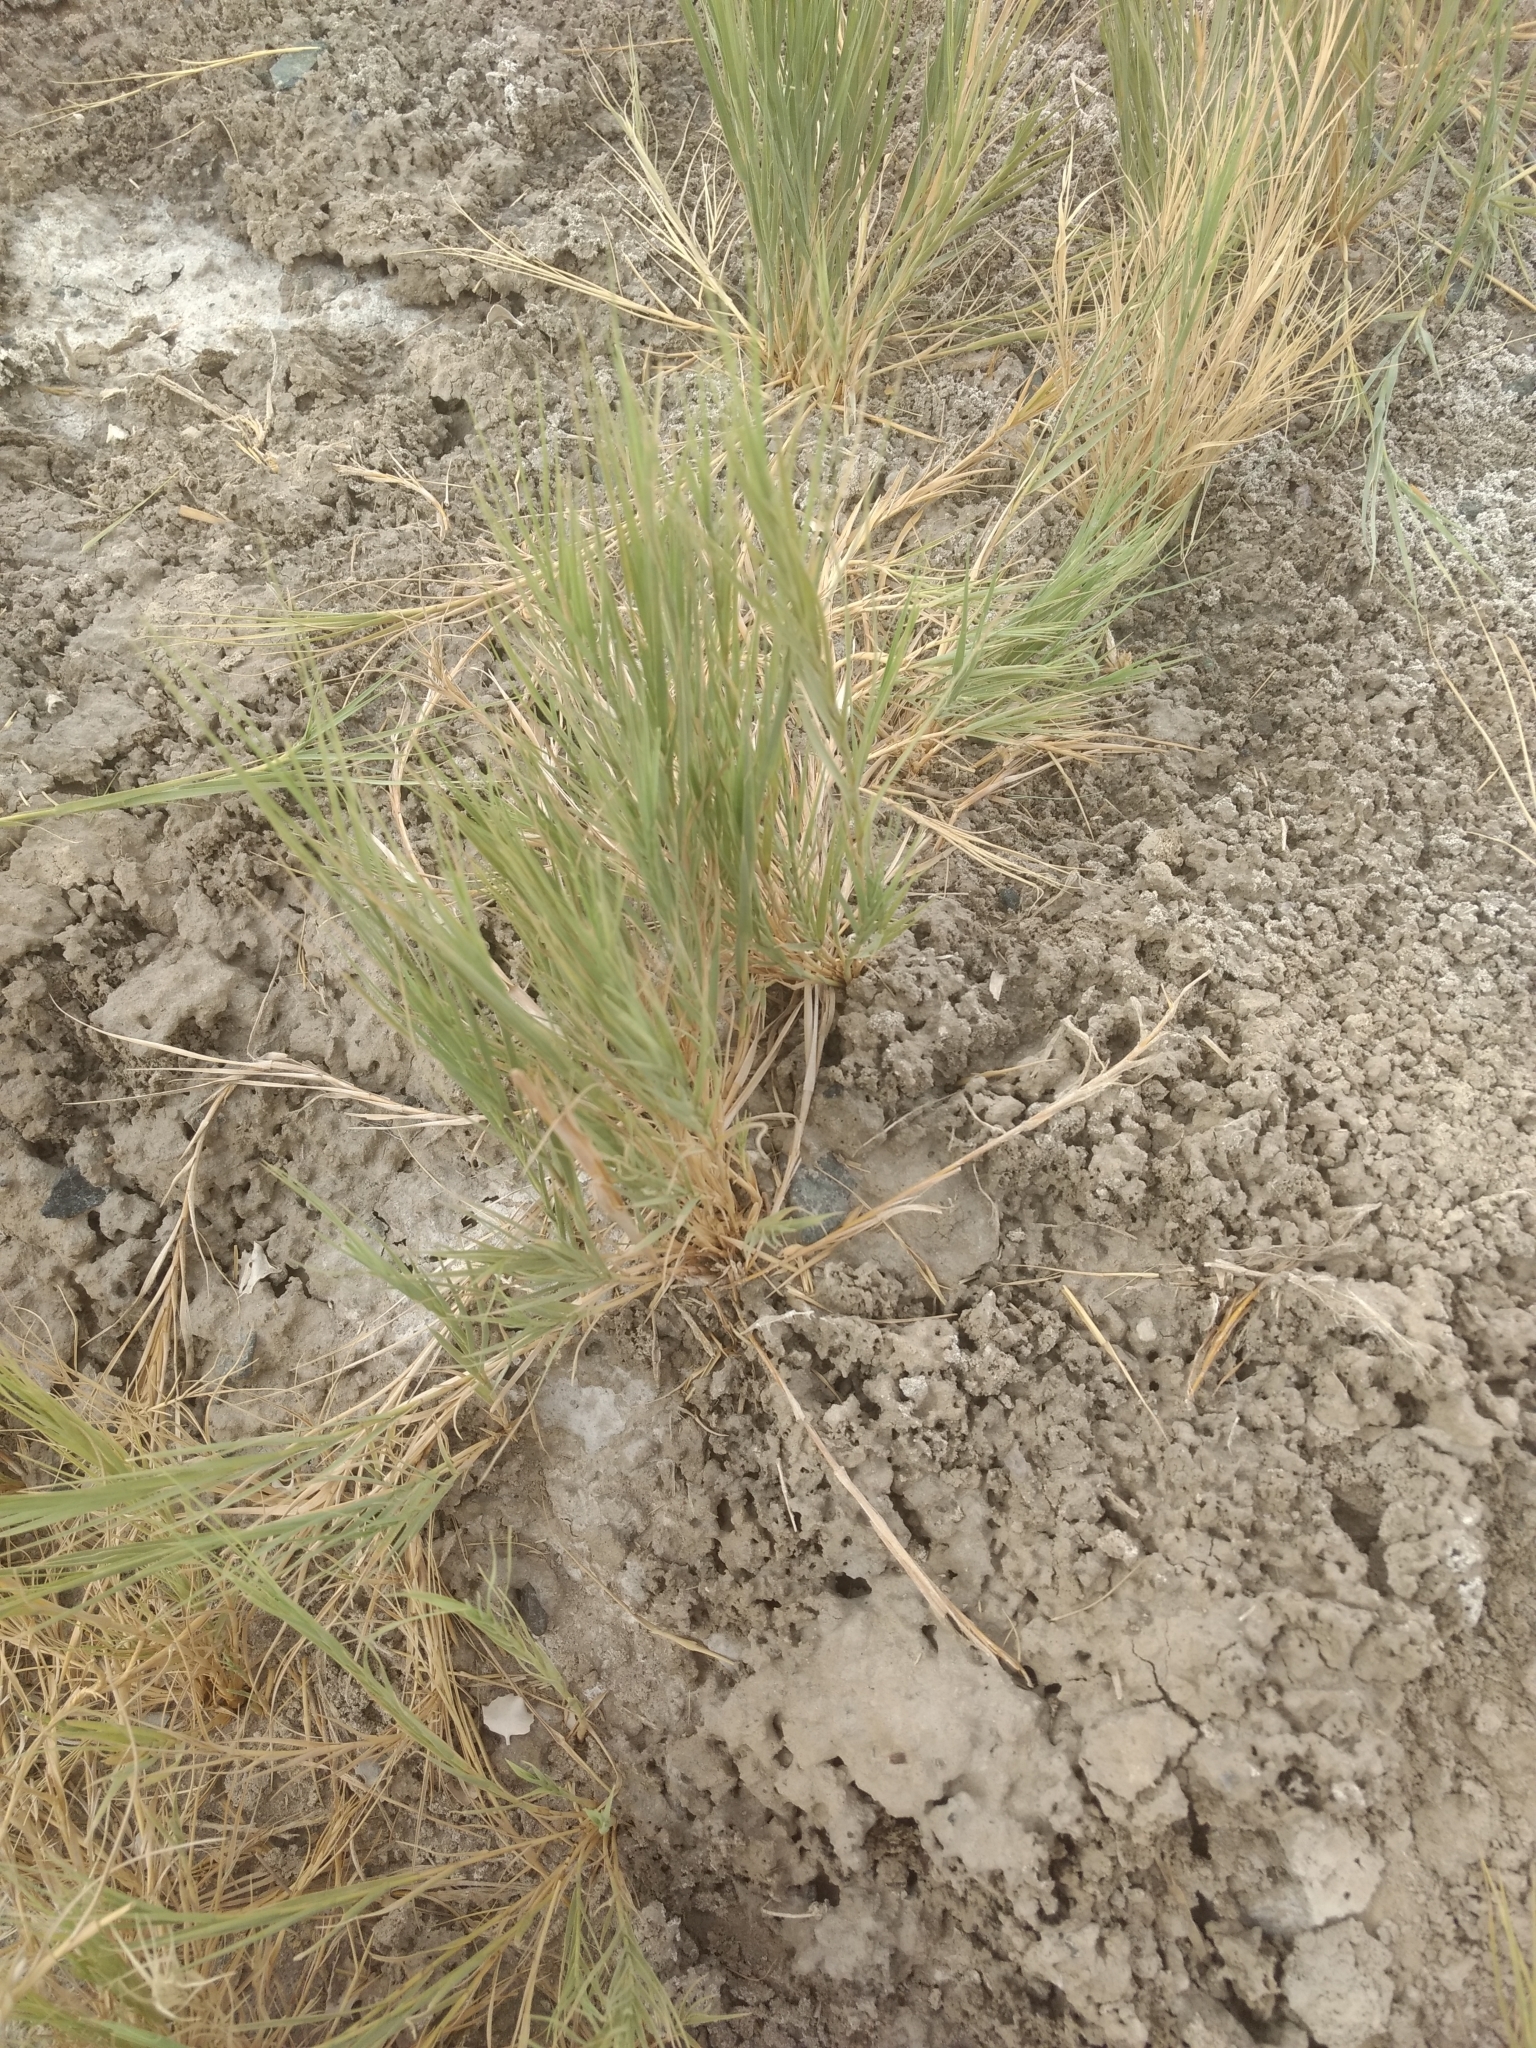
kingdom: Plantae
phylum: Tracheophyta
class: Liliopsida
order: Poales
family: Poaceae
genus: Distichlis
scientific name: Distichlis spicata
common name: Saltgrass
